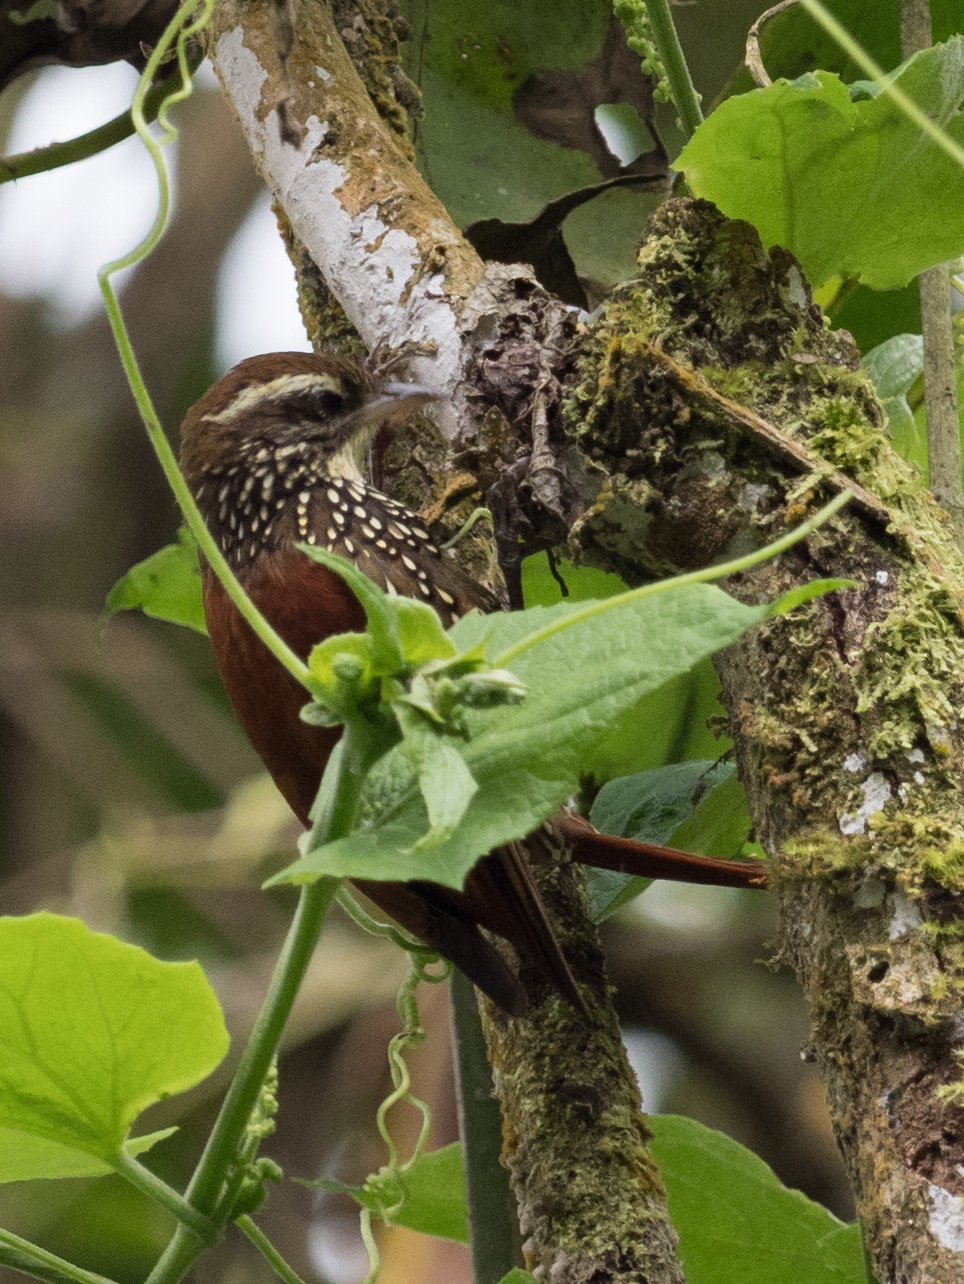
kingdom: Animalia
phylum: Chordata
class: Aves
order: Passeriformes
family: Furnariidae
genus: Margarornis
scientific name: Margarornis squamiger
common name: Pearled treerunner
